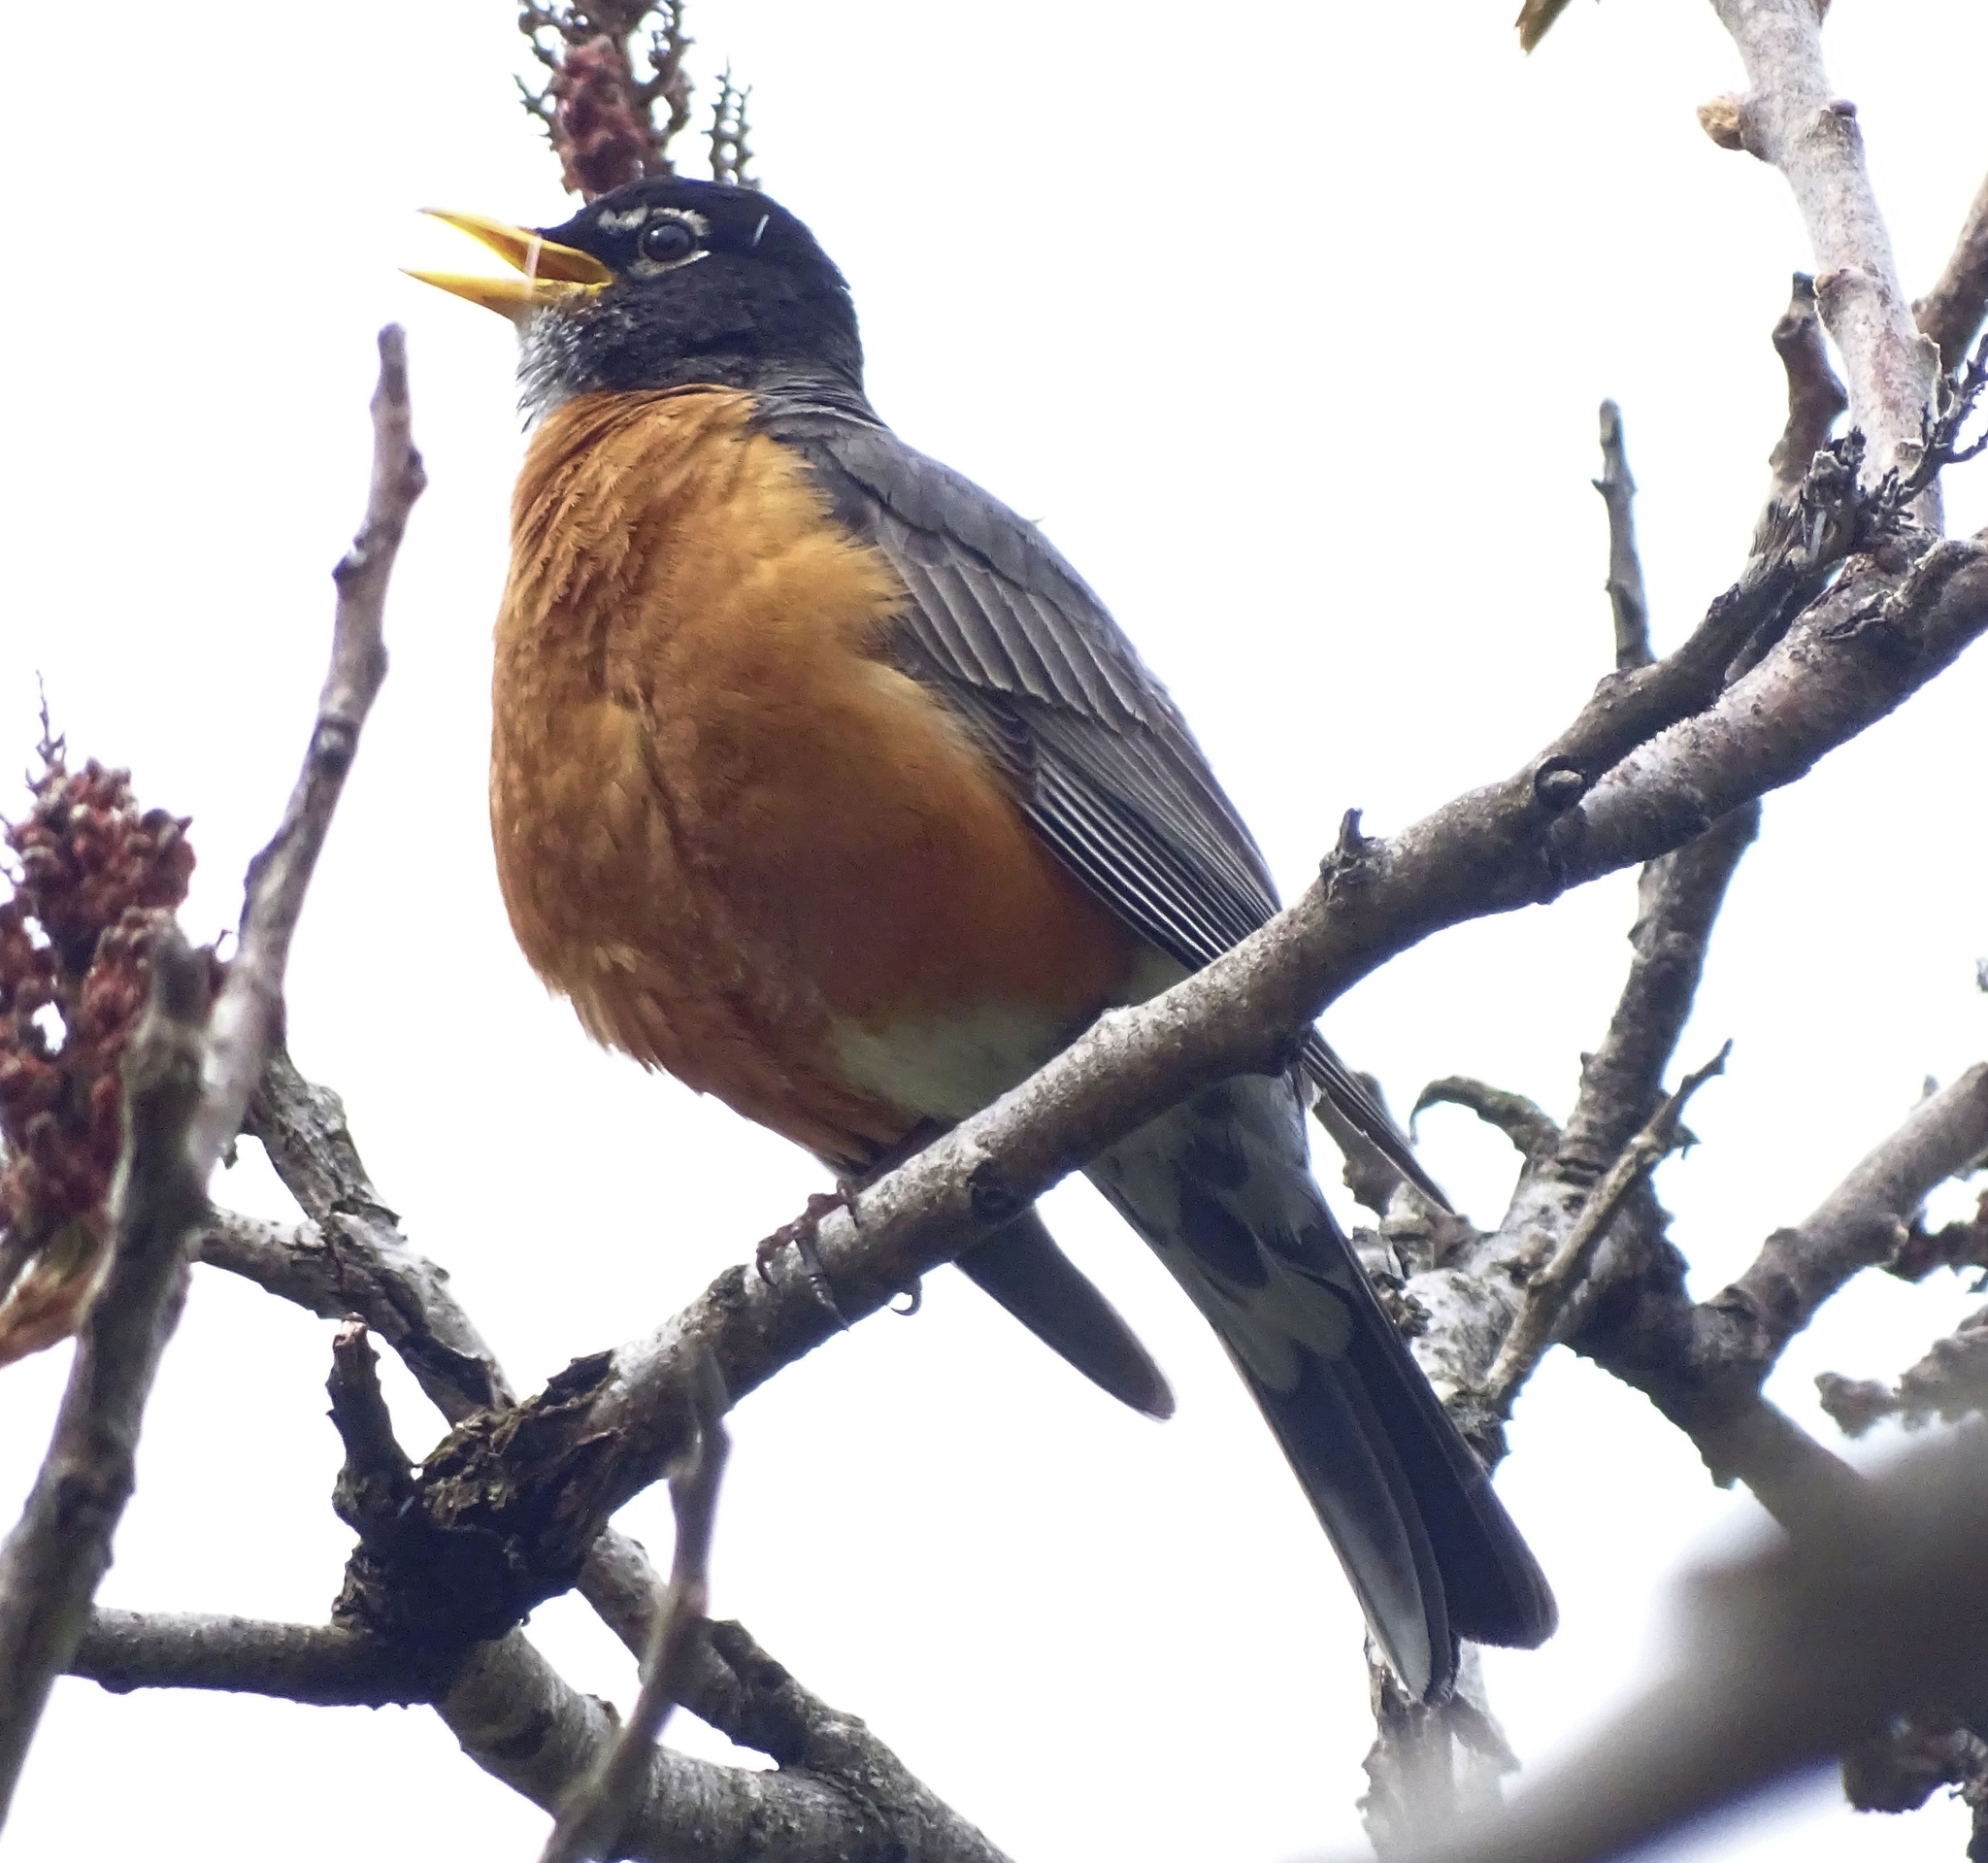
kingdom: Animalia
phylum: Chordata
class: Aves
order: Passeriformes
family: Turdidae
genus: Turdus
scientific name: Turdus migratorius
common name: American robin
